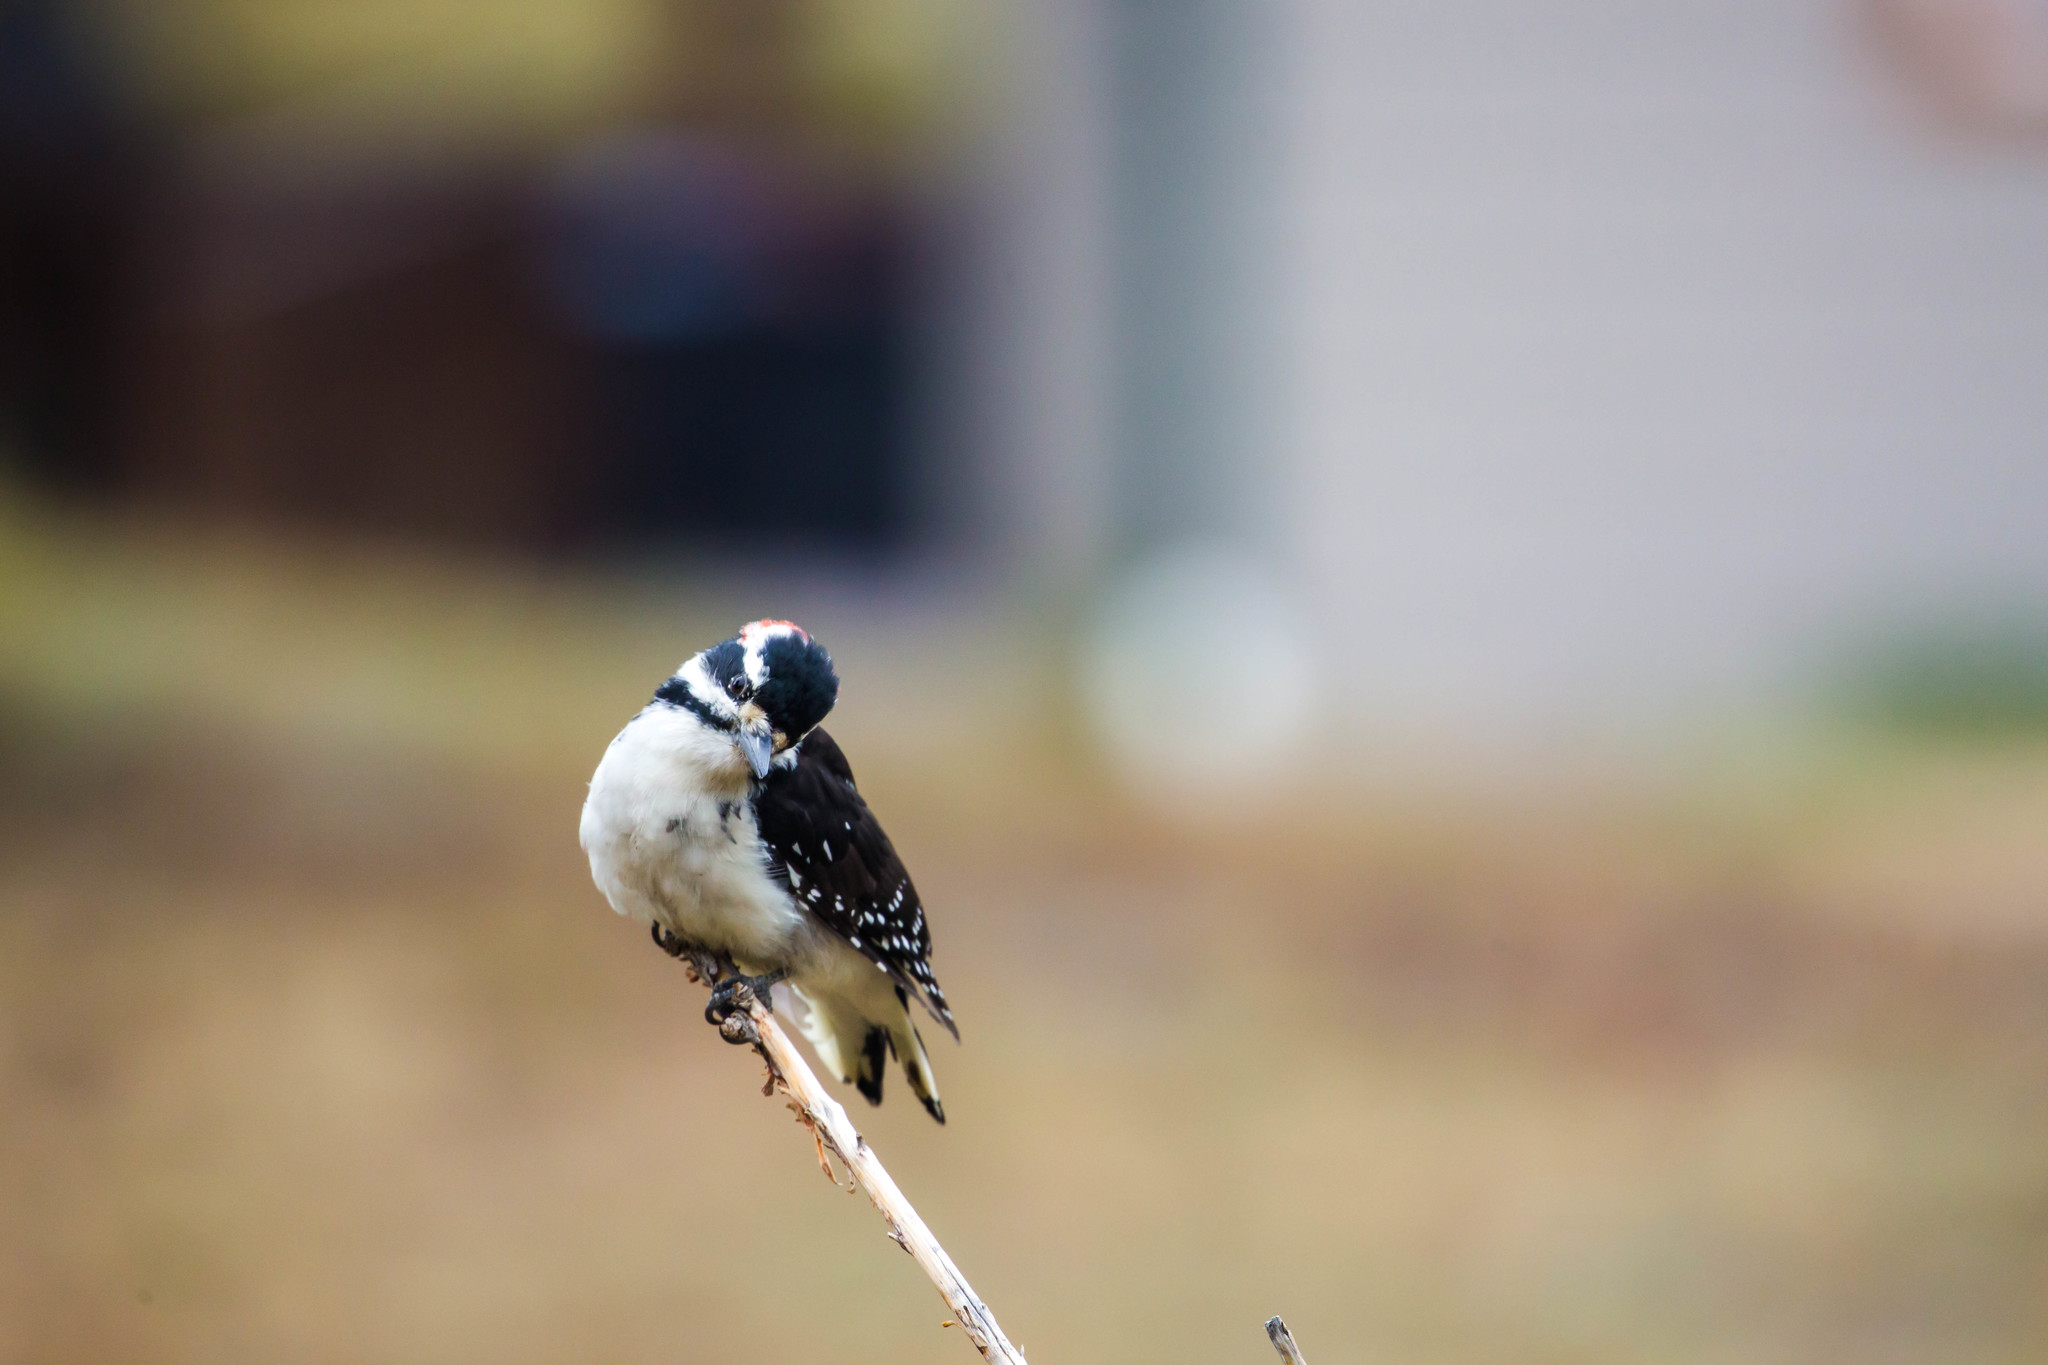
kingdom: Animalia
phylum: Chordata
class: Aves
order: Piciformes
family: Picidae
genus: Leuconotopicus
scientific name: Leuconotopicus villosus
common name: Hairy woodpecker
